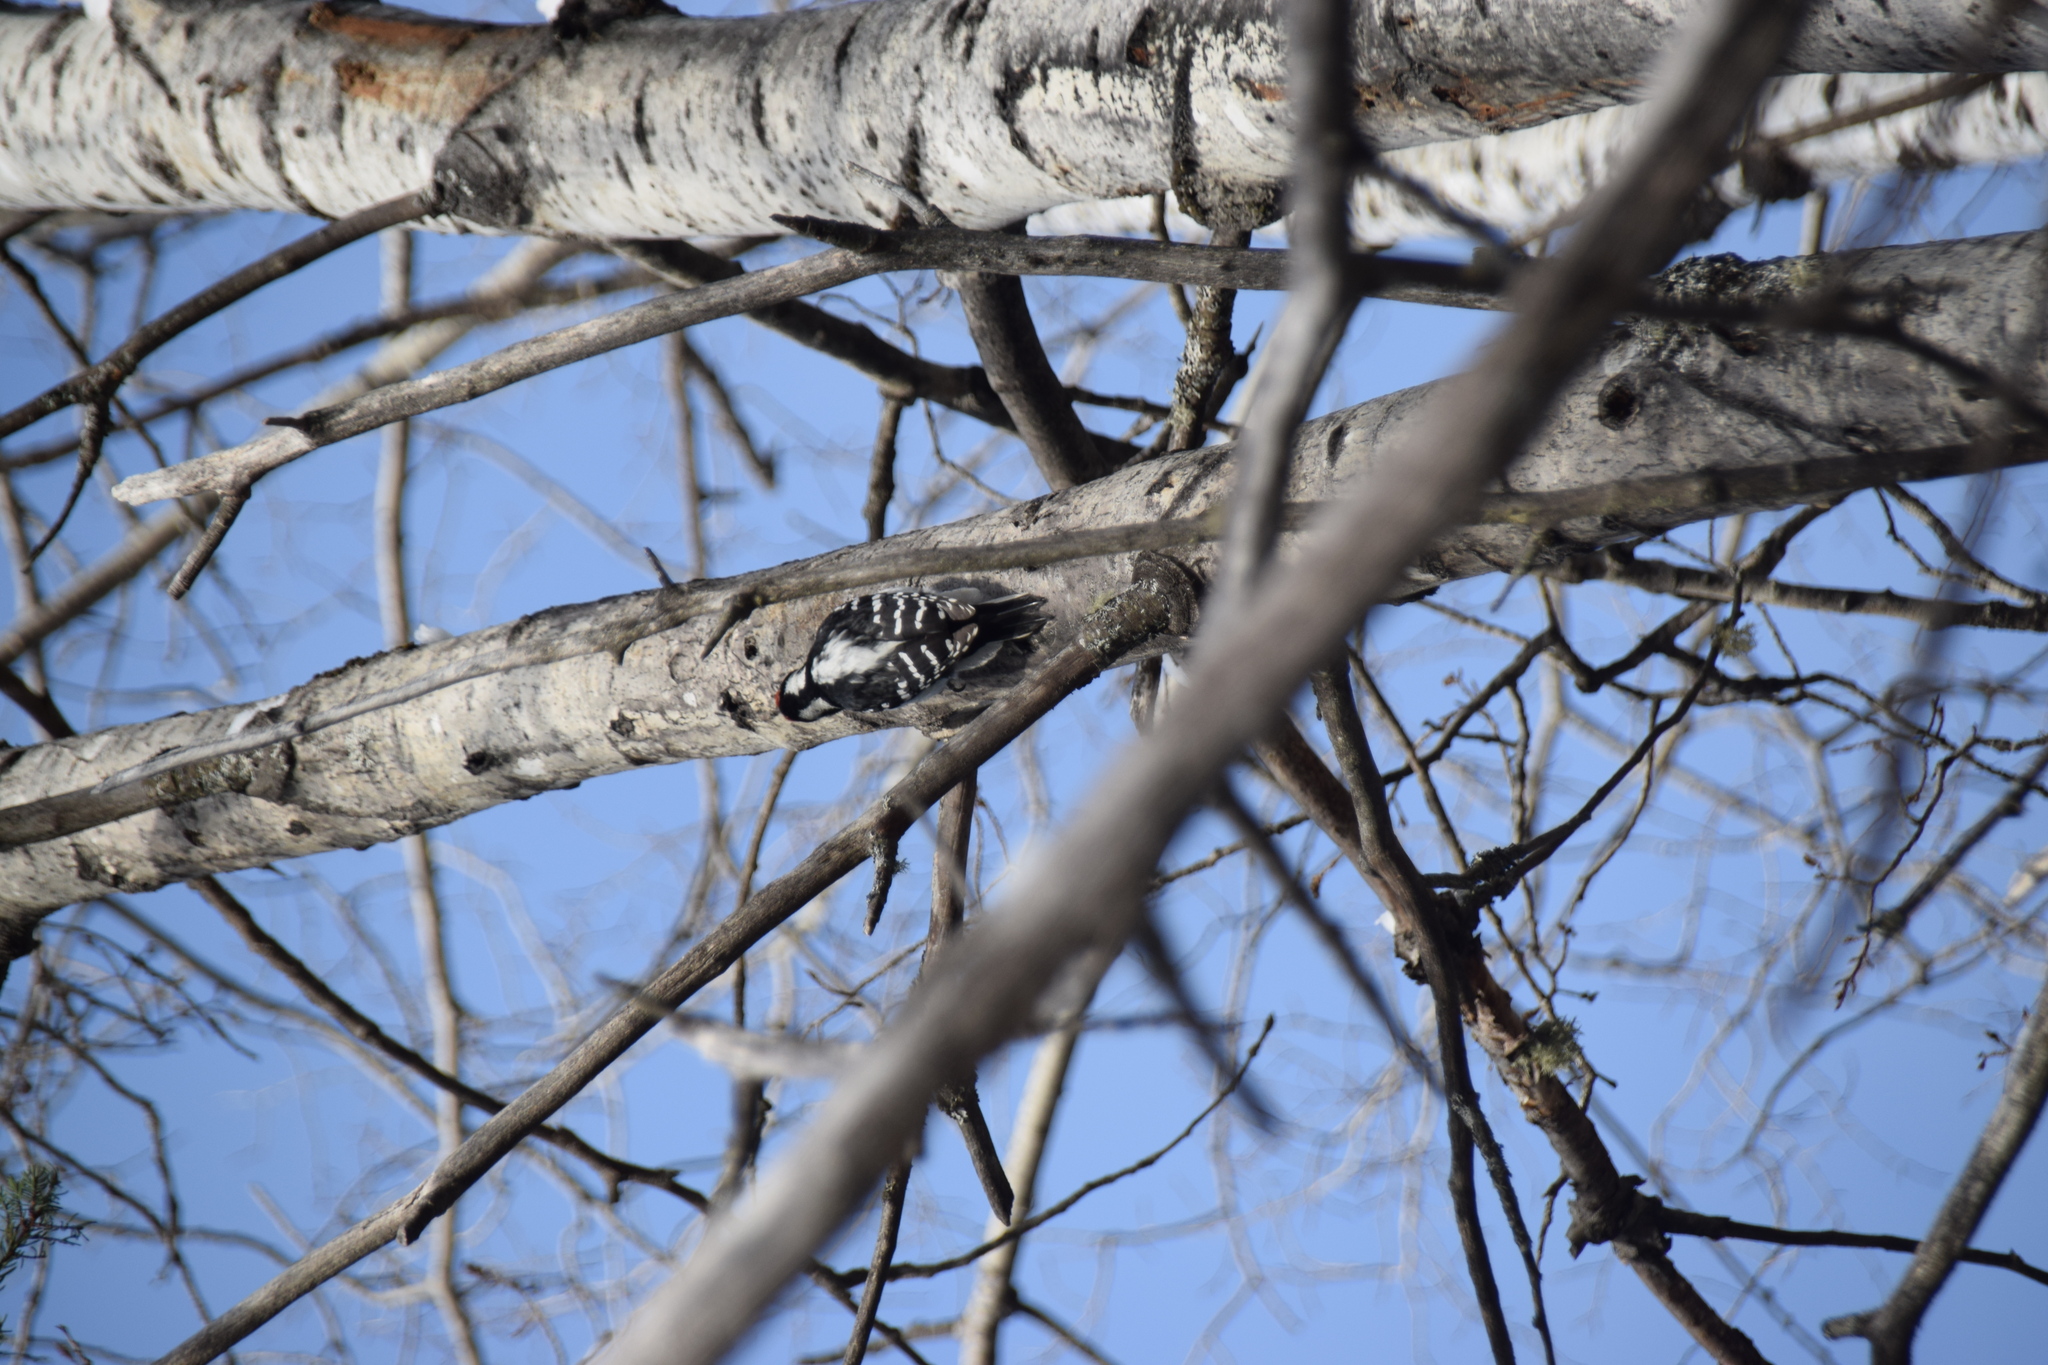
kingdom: Animalia
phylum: Chordata
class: Aves
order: Piciformes
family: Picidae
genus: Leuconotopicus
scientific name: Leuconotopicus villosus
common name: Hairy woodpecker
